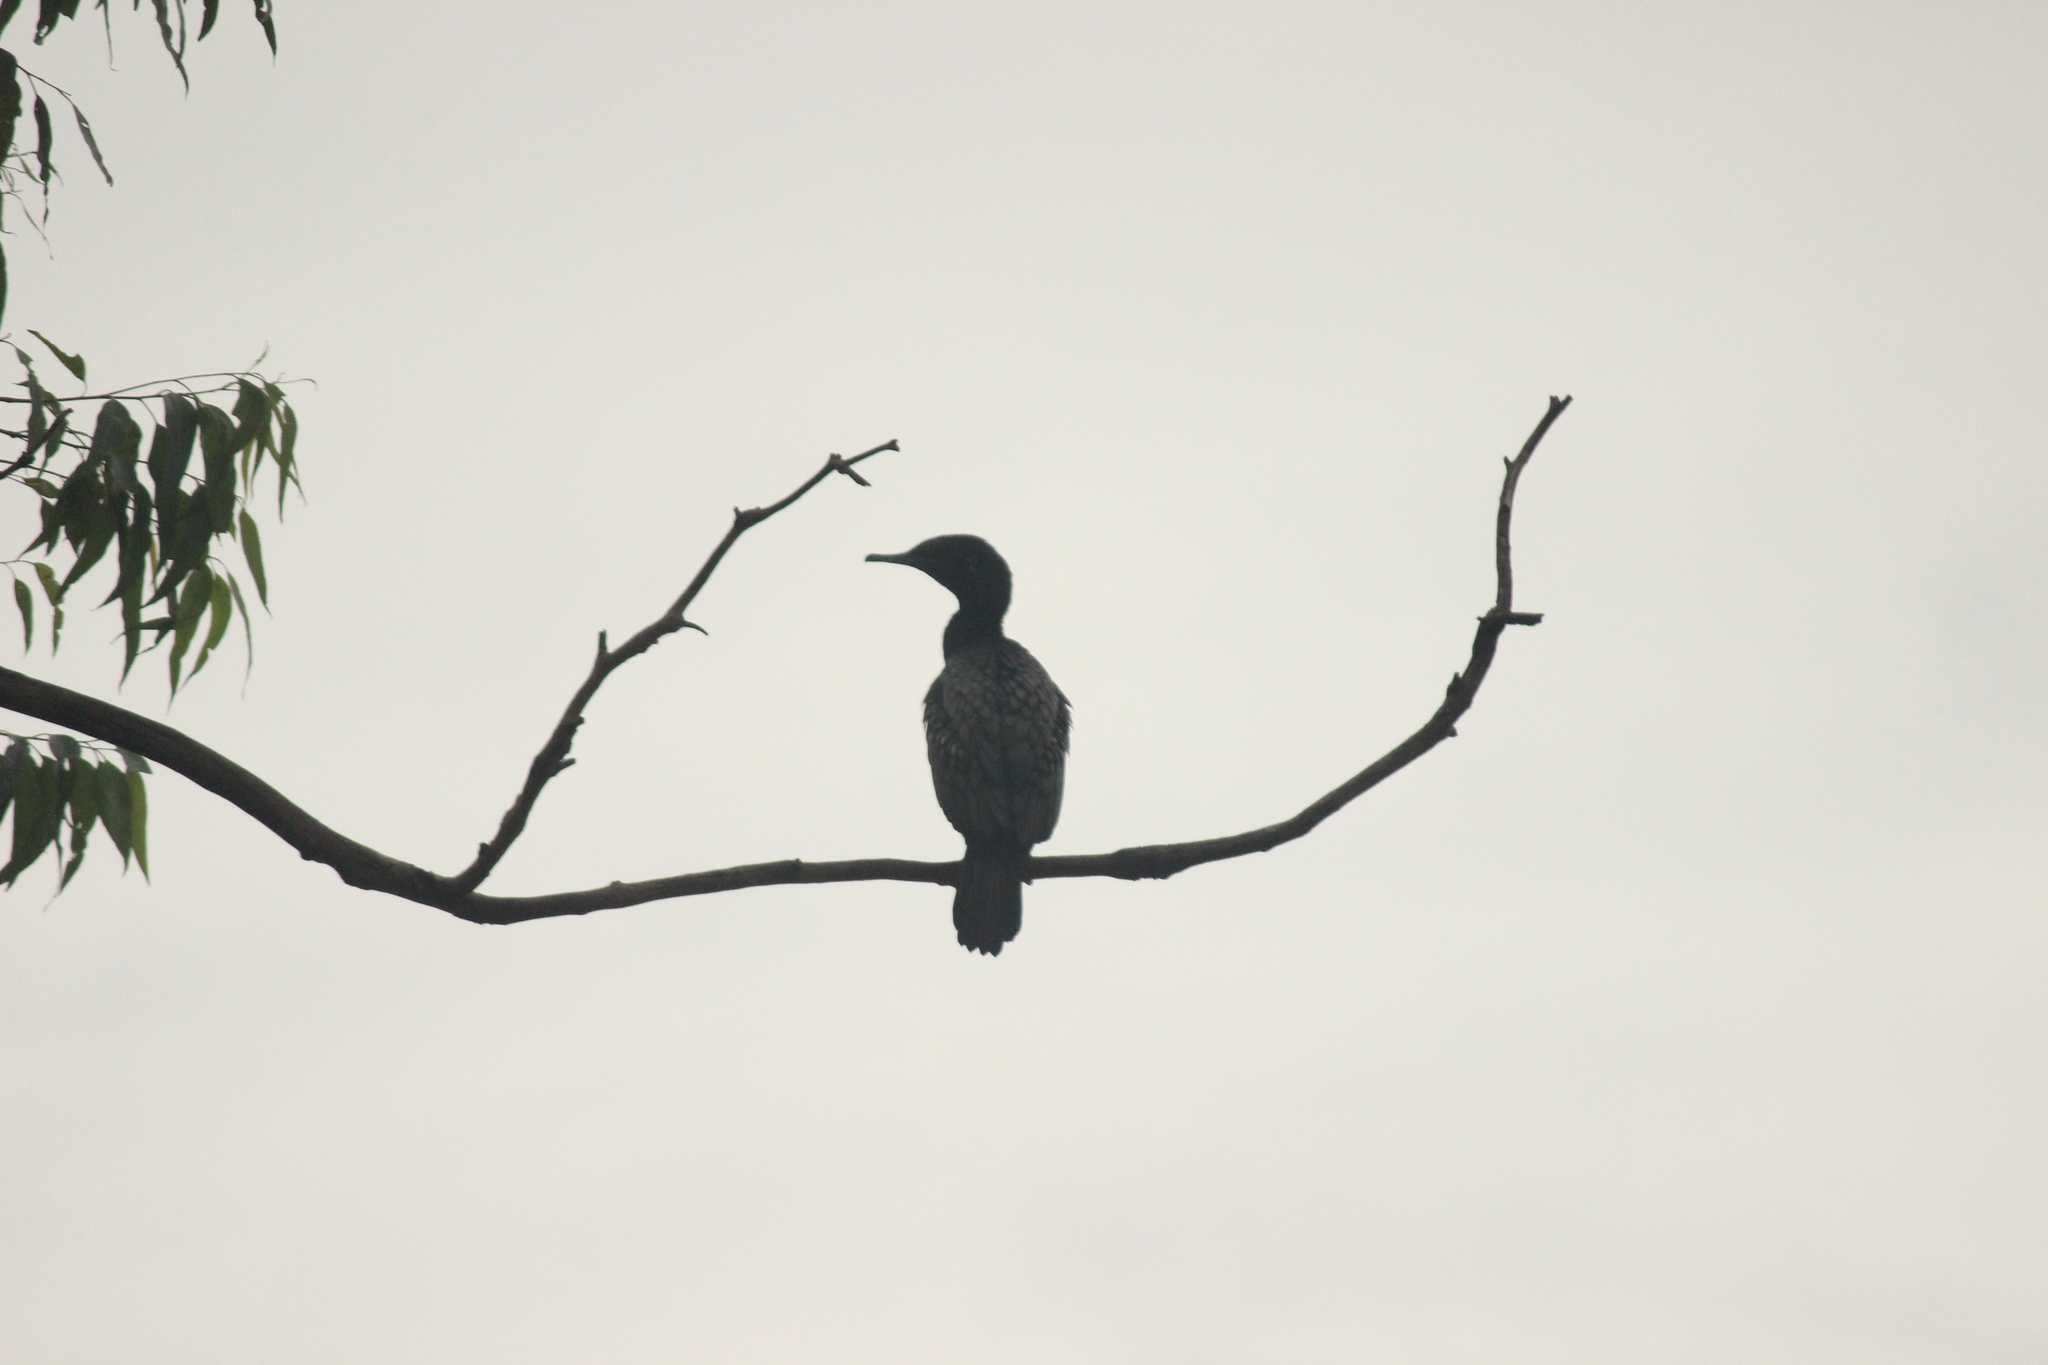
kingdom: Animalia
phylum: Chordata
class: Aves
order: Suliformes
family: Phalacrocoracidae
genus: Phalacrocorax
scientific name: Phalacrocorax sulcirostris
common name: Little black cormorant
